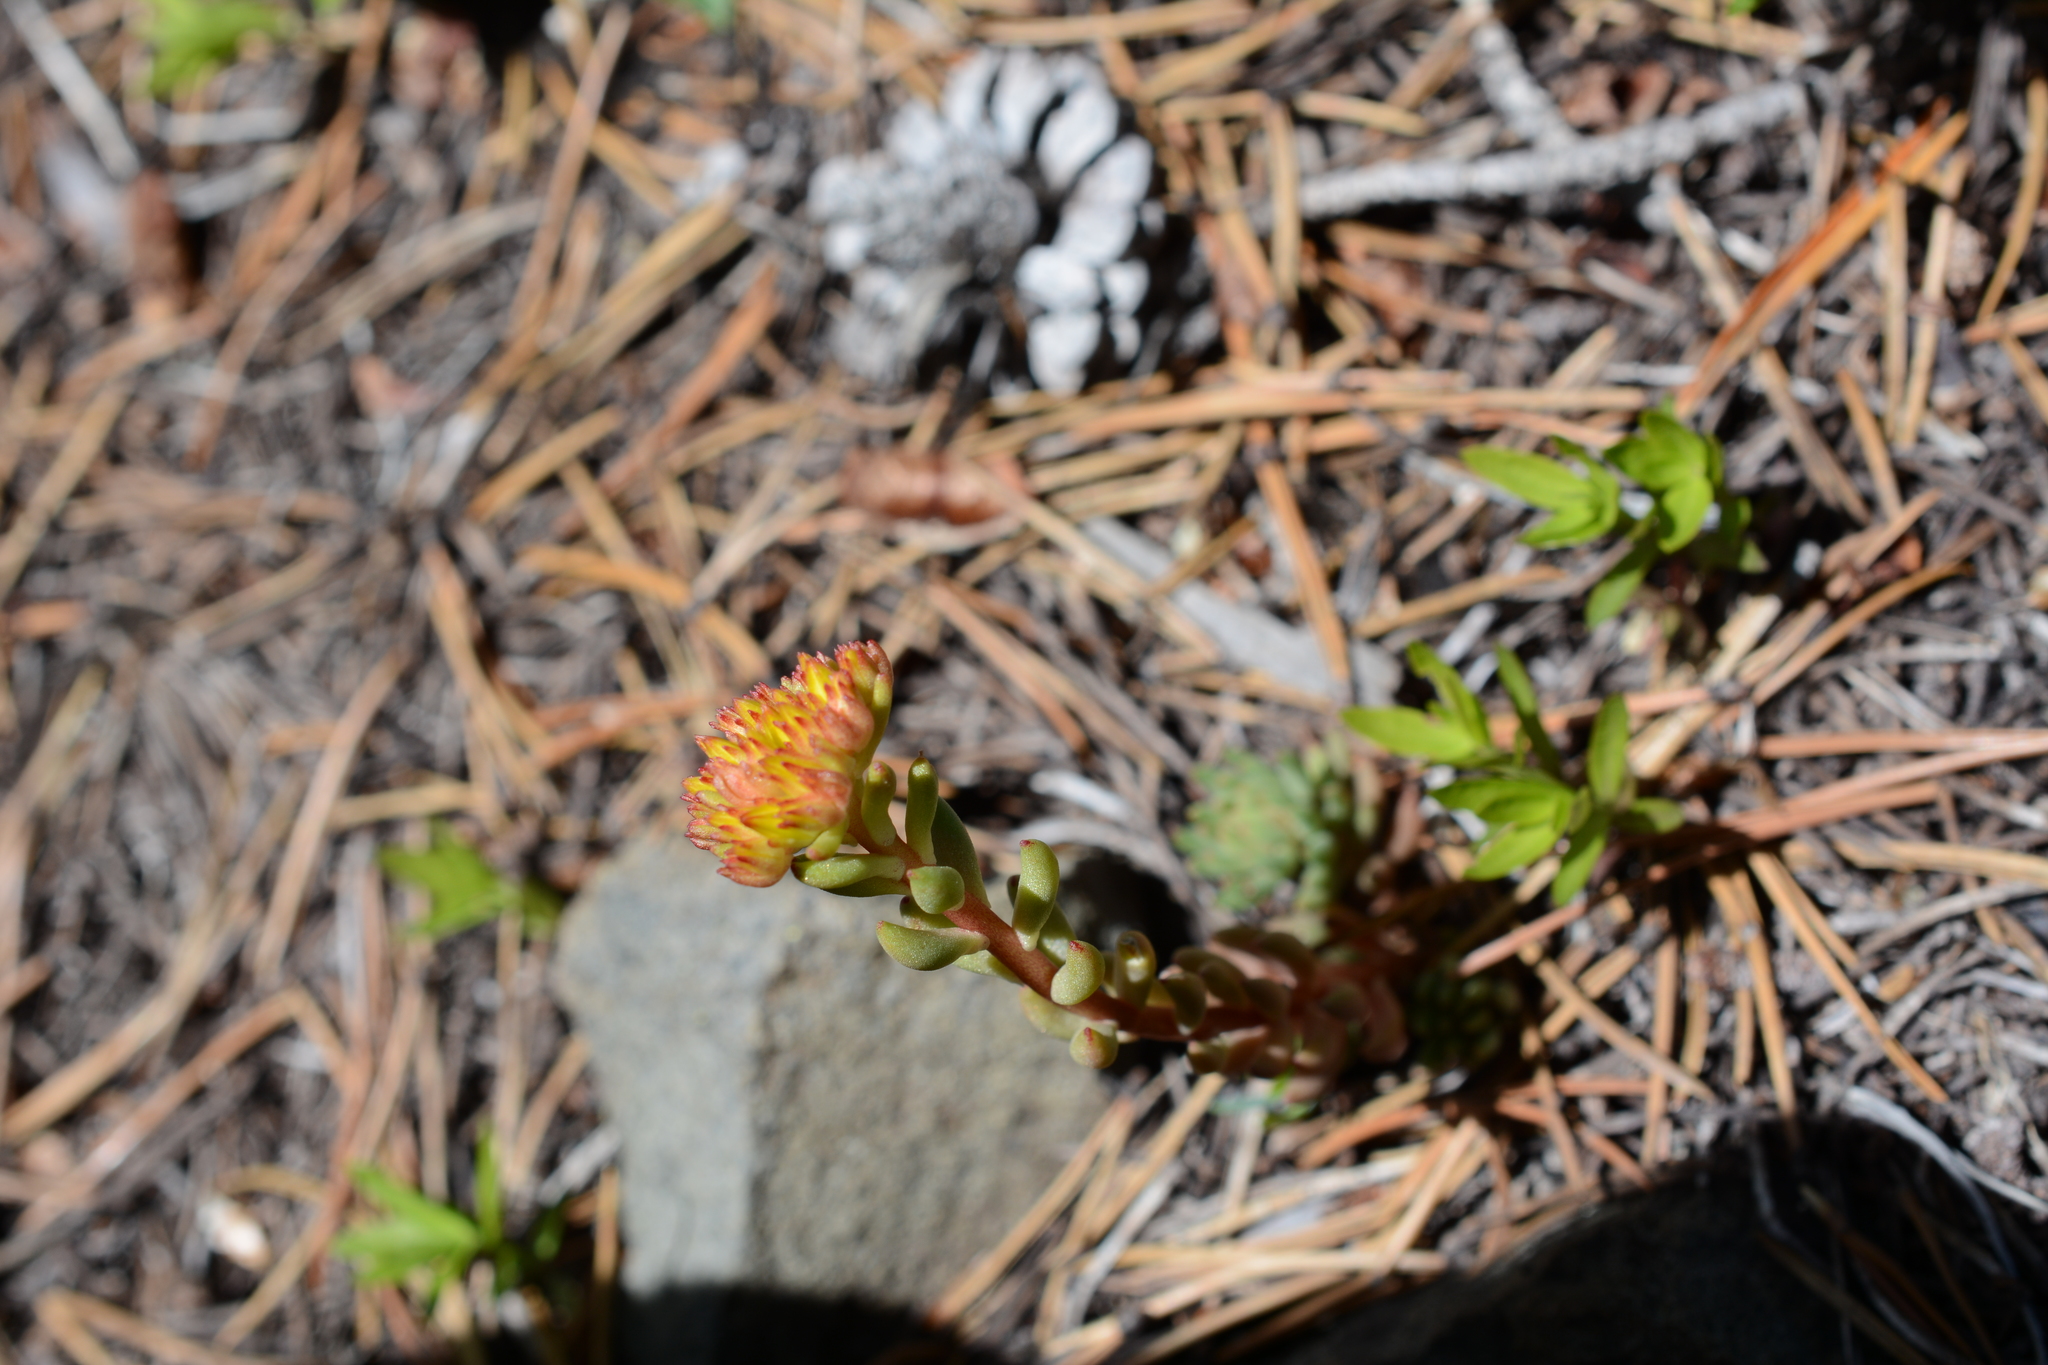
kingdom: Plantae
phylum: Tracheophyta
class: Magnoliopsida
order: Saxifragales
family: Crassulaceae
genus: Sedum
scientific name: Sedum lanceolatum
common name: Common stonecrop
